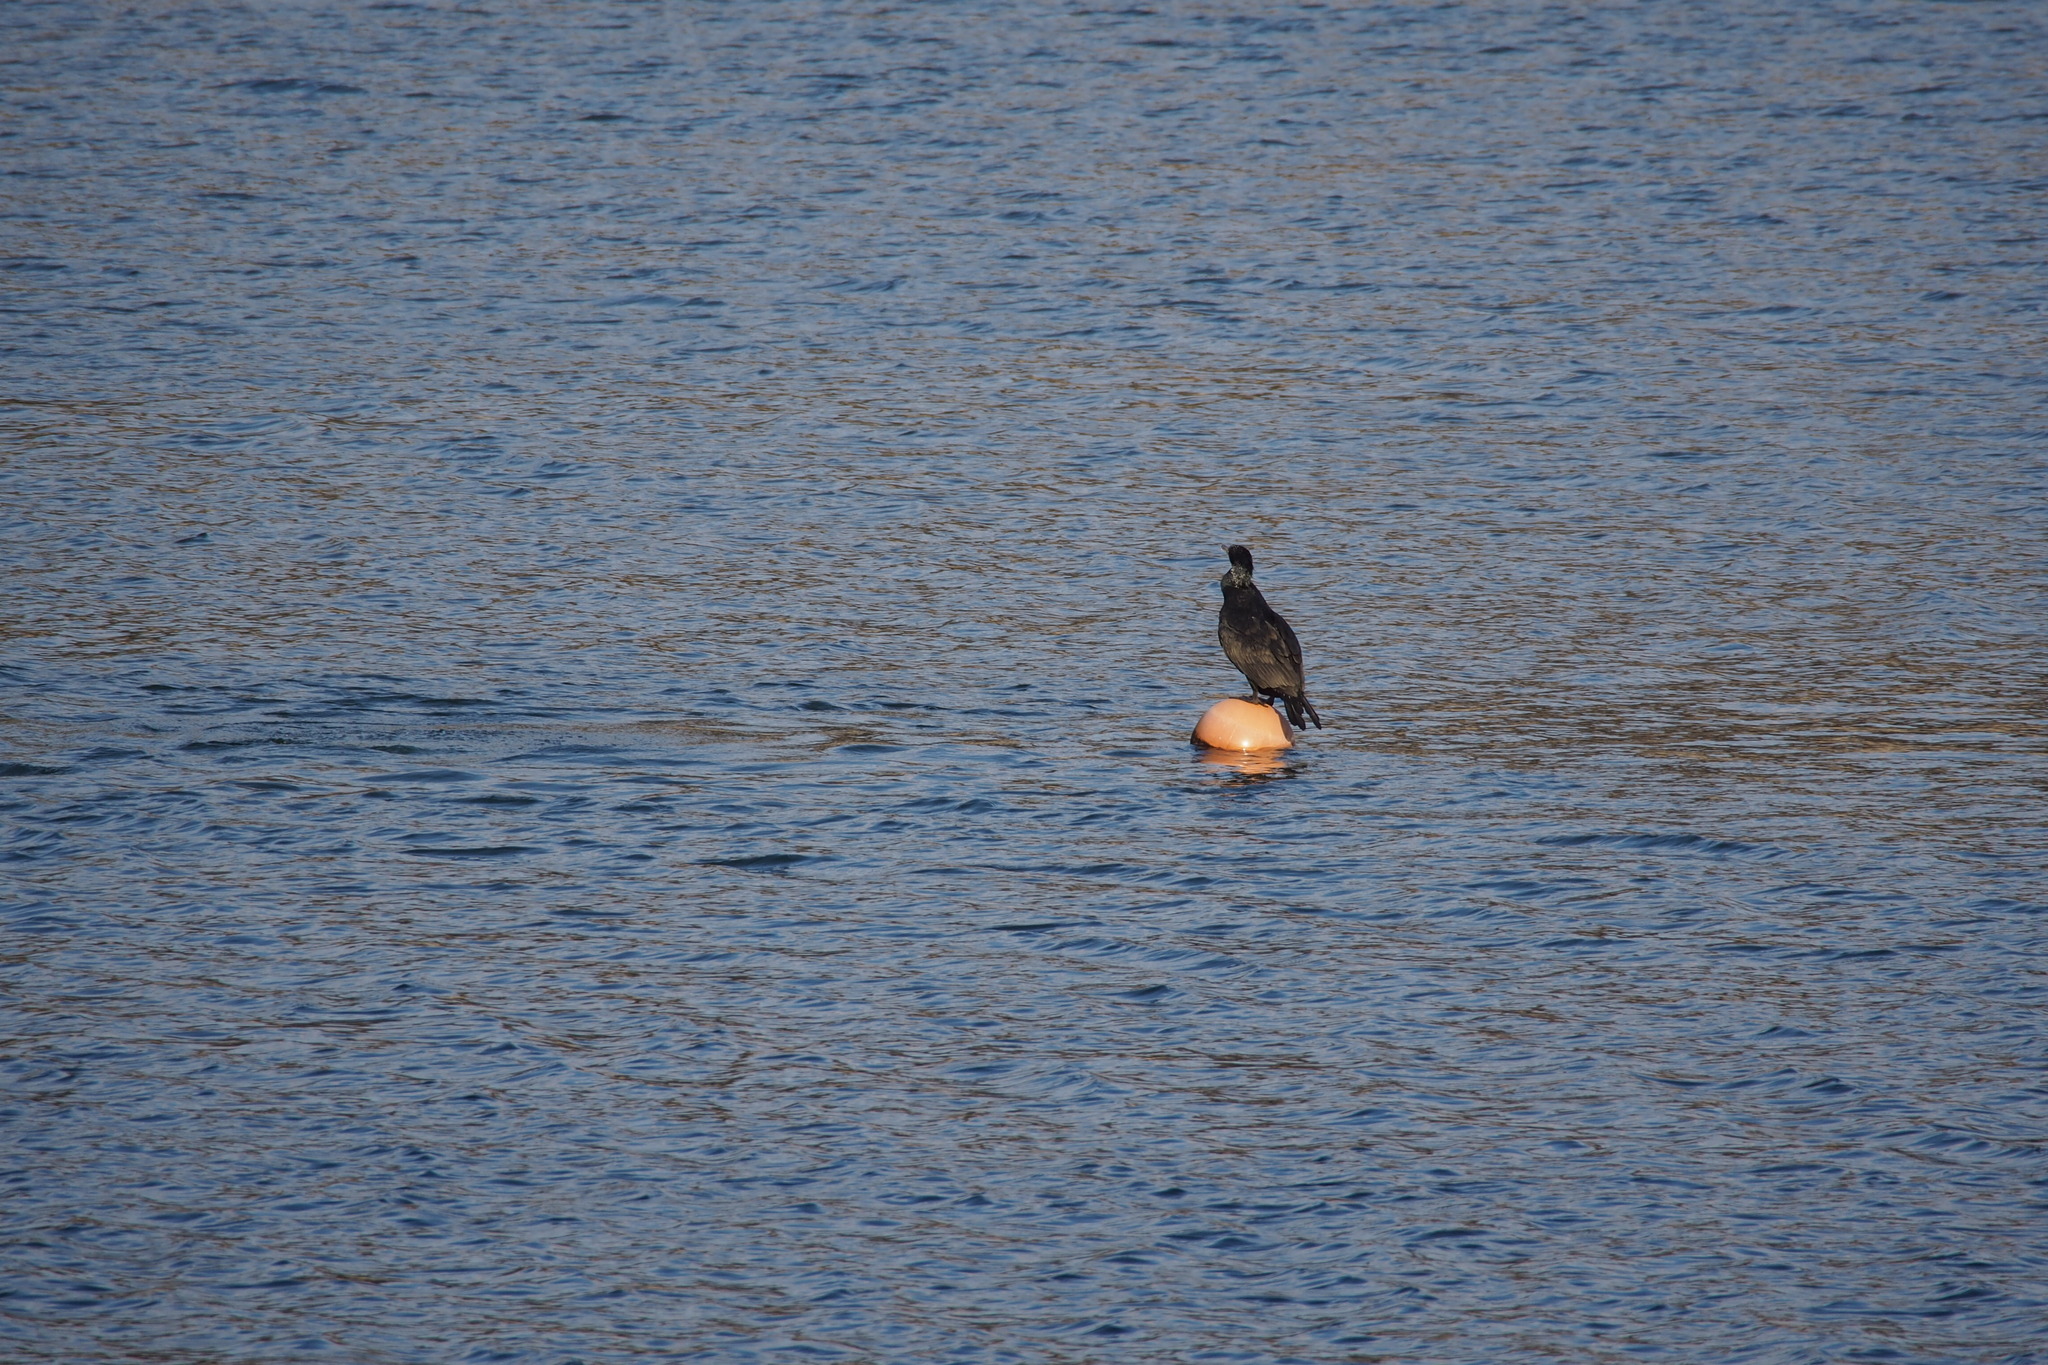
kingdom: Animalia
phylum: Chordata
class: Aves
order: Suliformes
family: Phalacrocoracidae
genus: Phalacrocorax
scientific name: Phalacrocorax carbo
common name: Great cormorant
